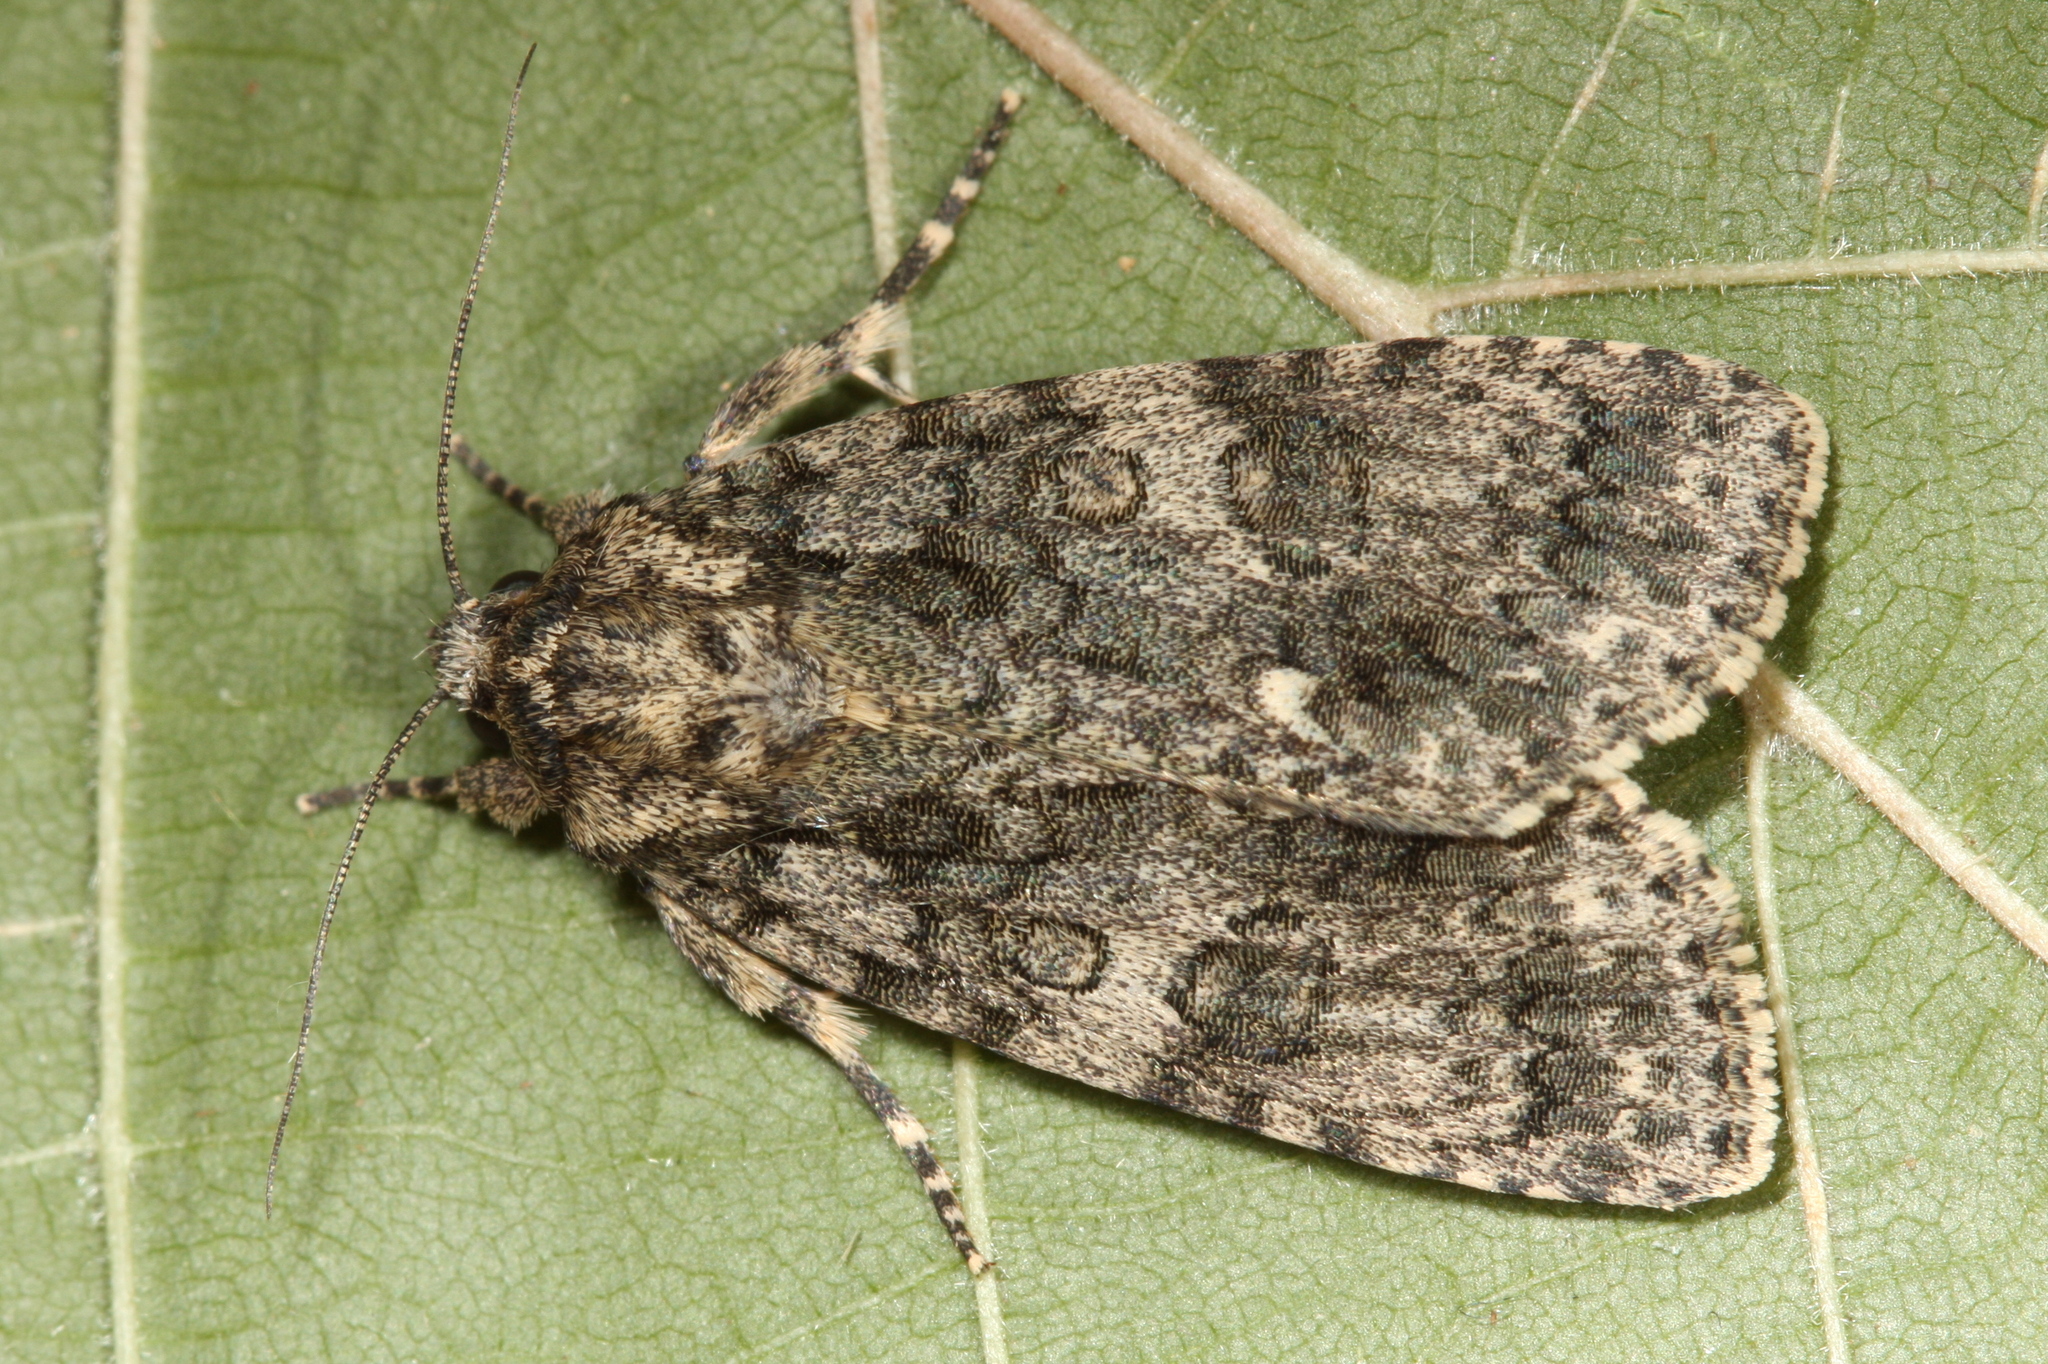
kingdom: Animalia
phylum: Arthropoda
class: Insecta
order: Lepidoptera
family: Noctuidae
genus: Acronicta
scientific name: Acronicta rumicis
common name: Knot grass
